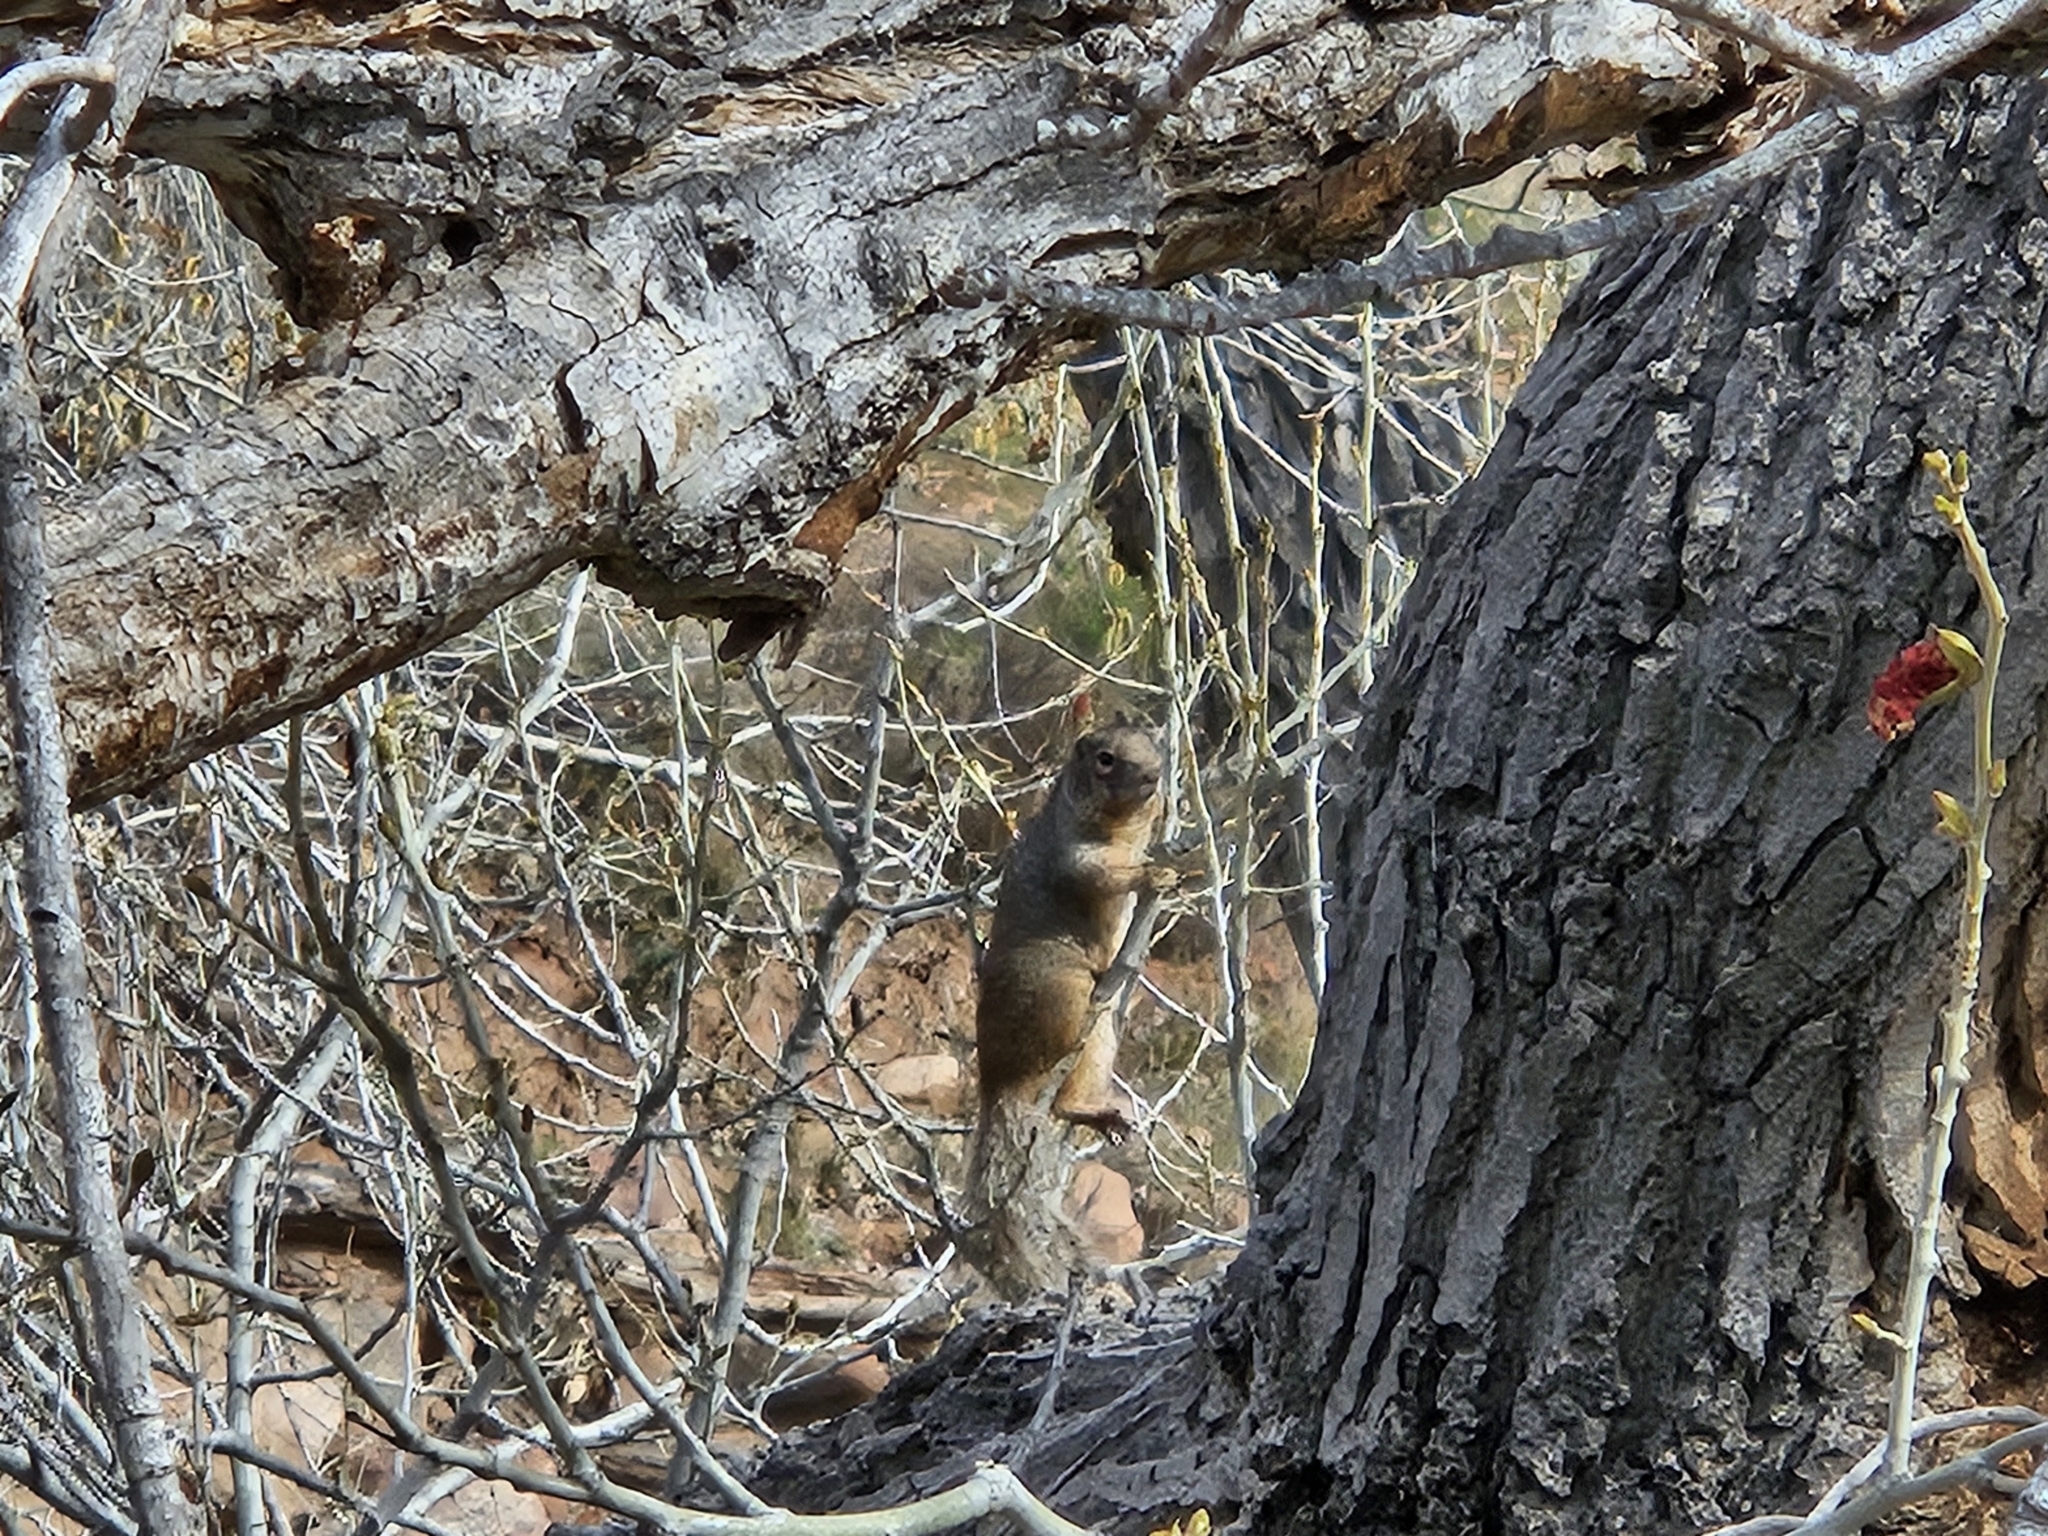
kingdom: Animalia
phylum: Chordata
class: Mammalia
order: Rodentia
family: Sciuridae
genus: Otospermophilus
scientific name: Otospermophilus variegatus
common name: Rock squirrel
